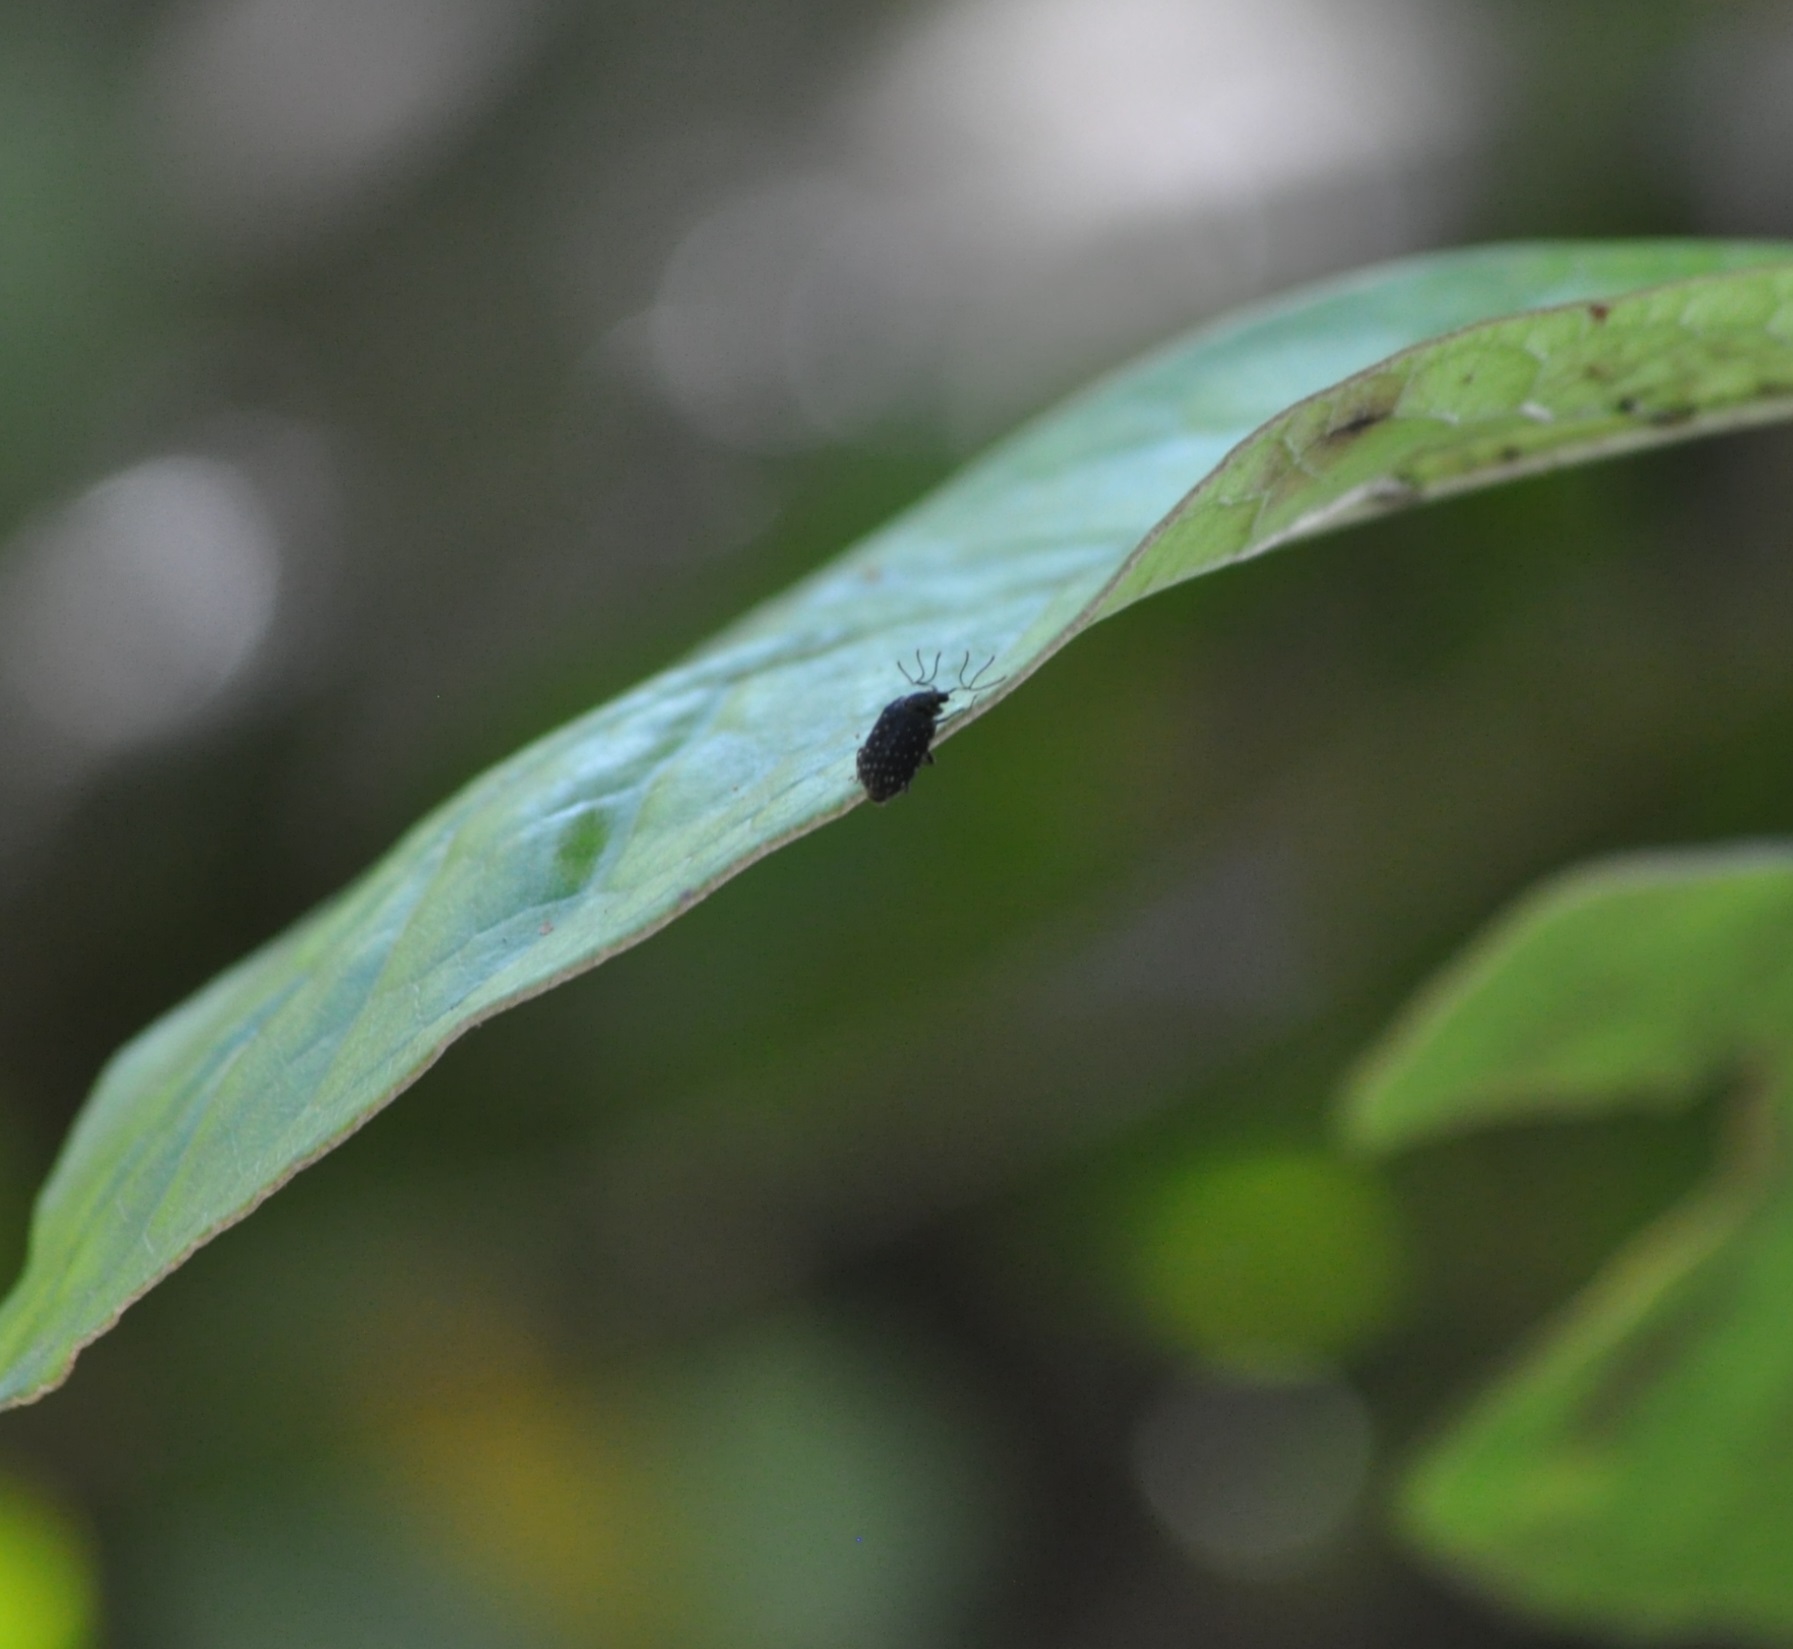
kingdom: Animalia
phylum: Arthropoda
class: Insecta
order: Coleoptera
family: Lucanidae
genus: Mitophyllus
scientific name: Mitophyllus macrocerus
